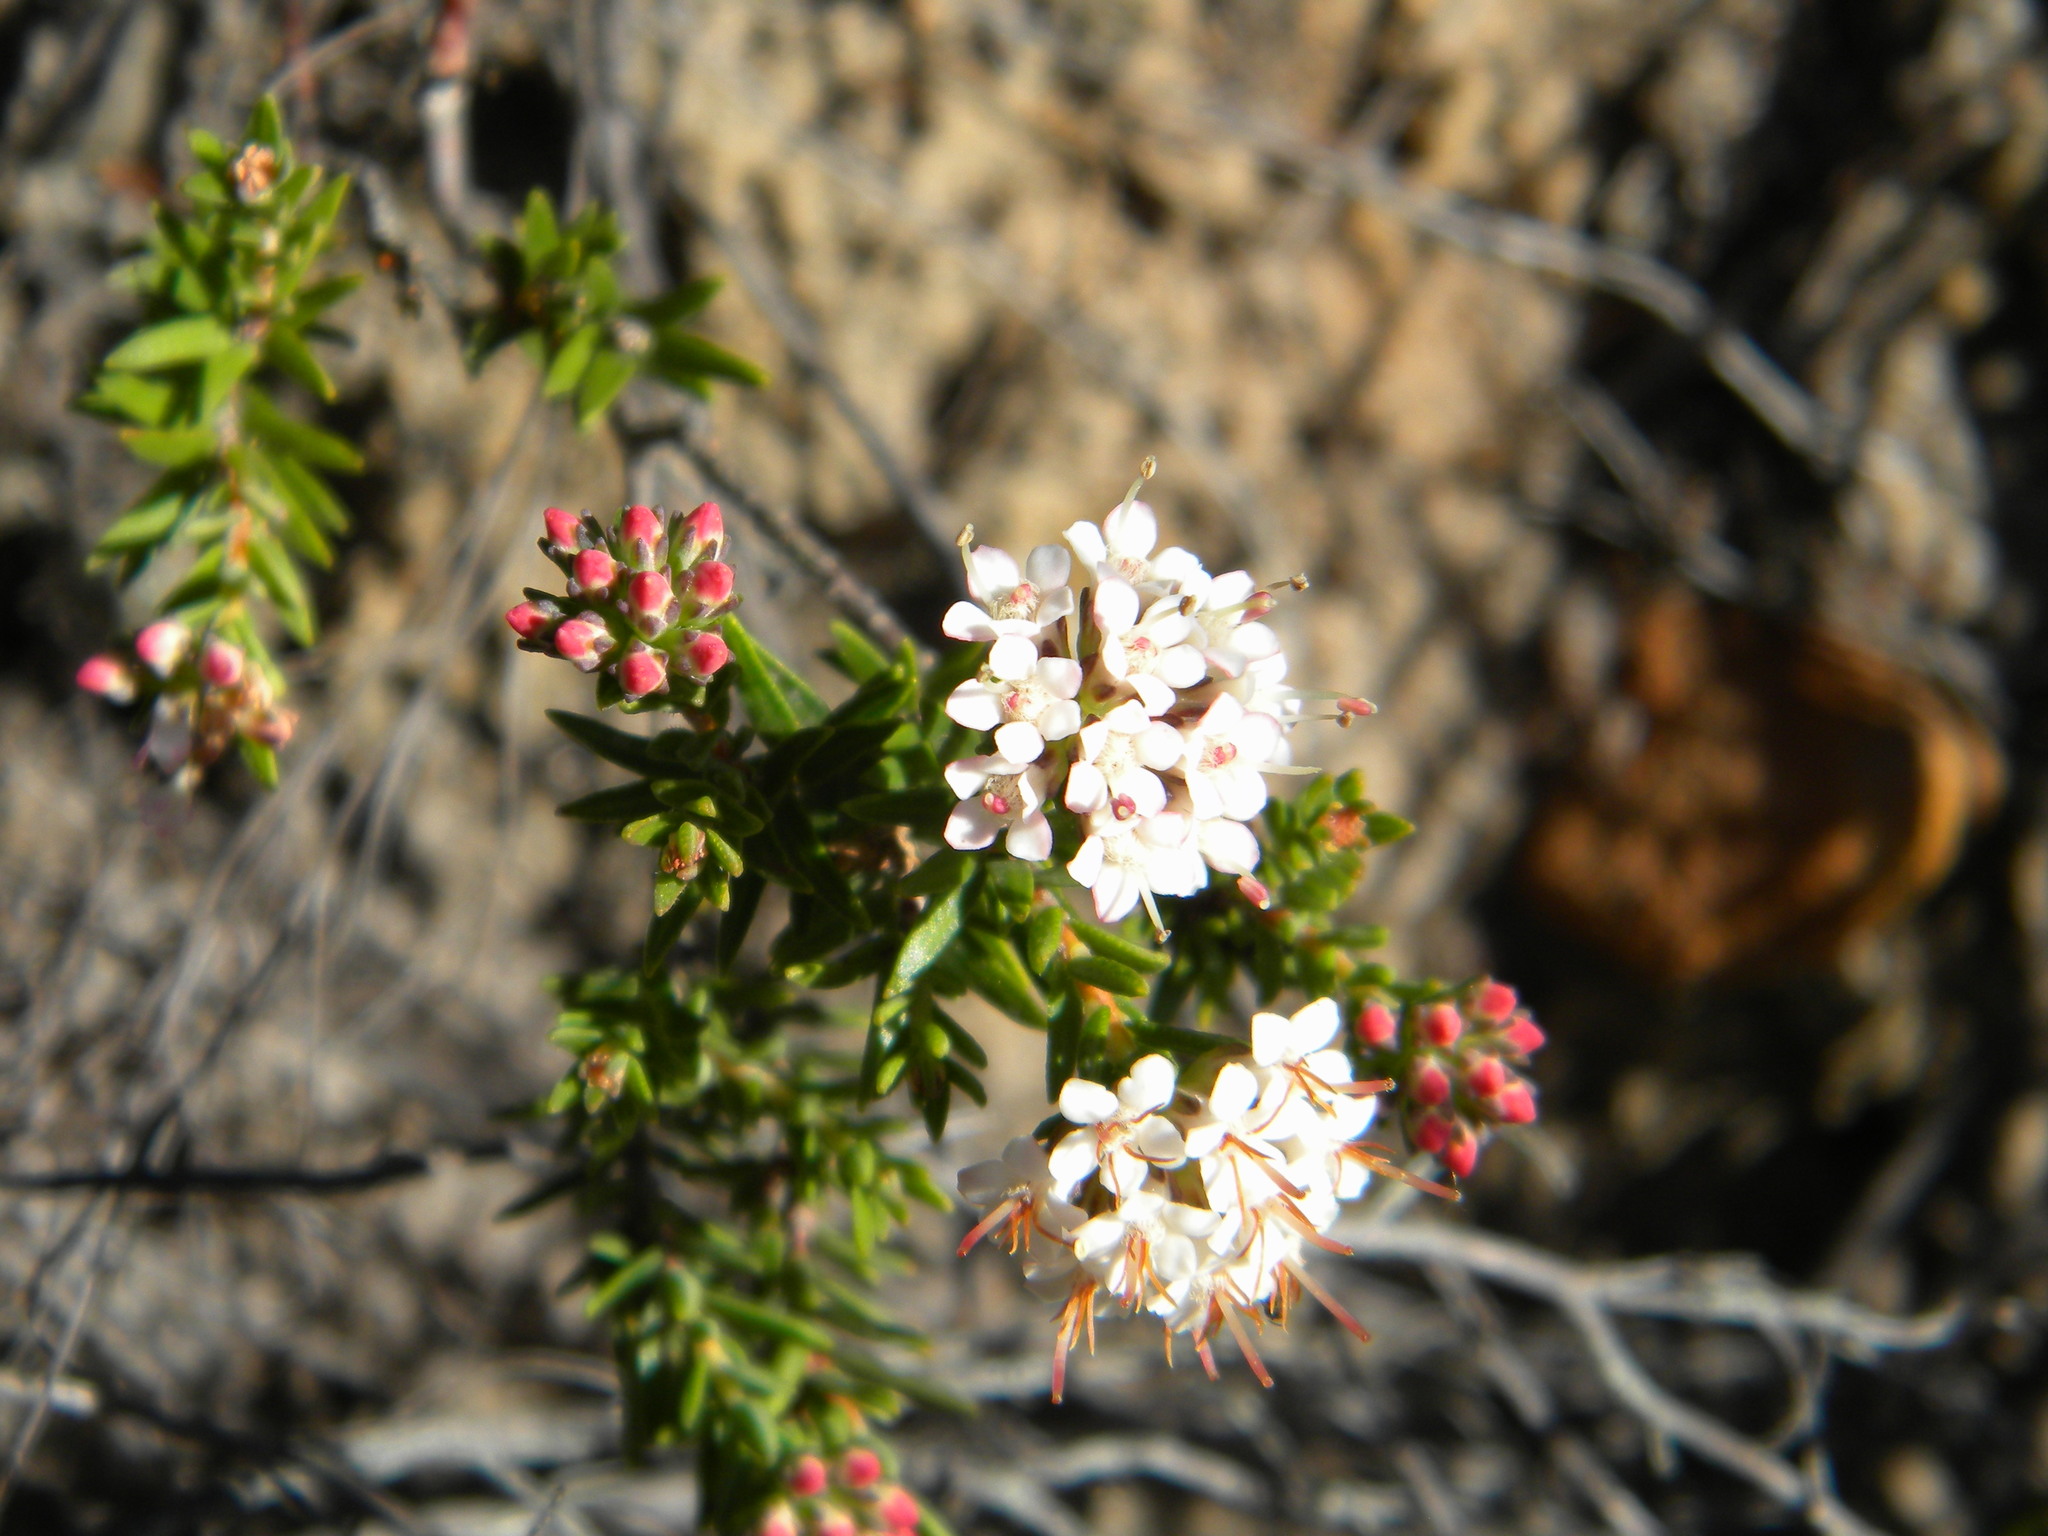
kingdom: Plantae
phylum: Tracheophyta
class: Magnoliopsida
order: Sapindales
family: Rutaceae
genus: Macrostylis
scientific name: Macrostylis villosa
